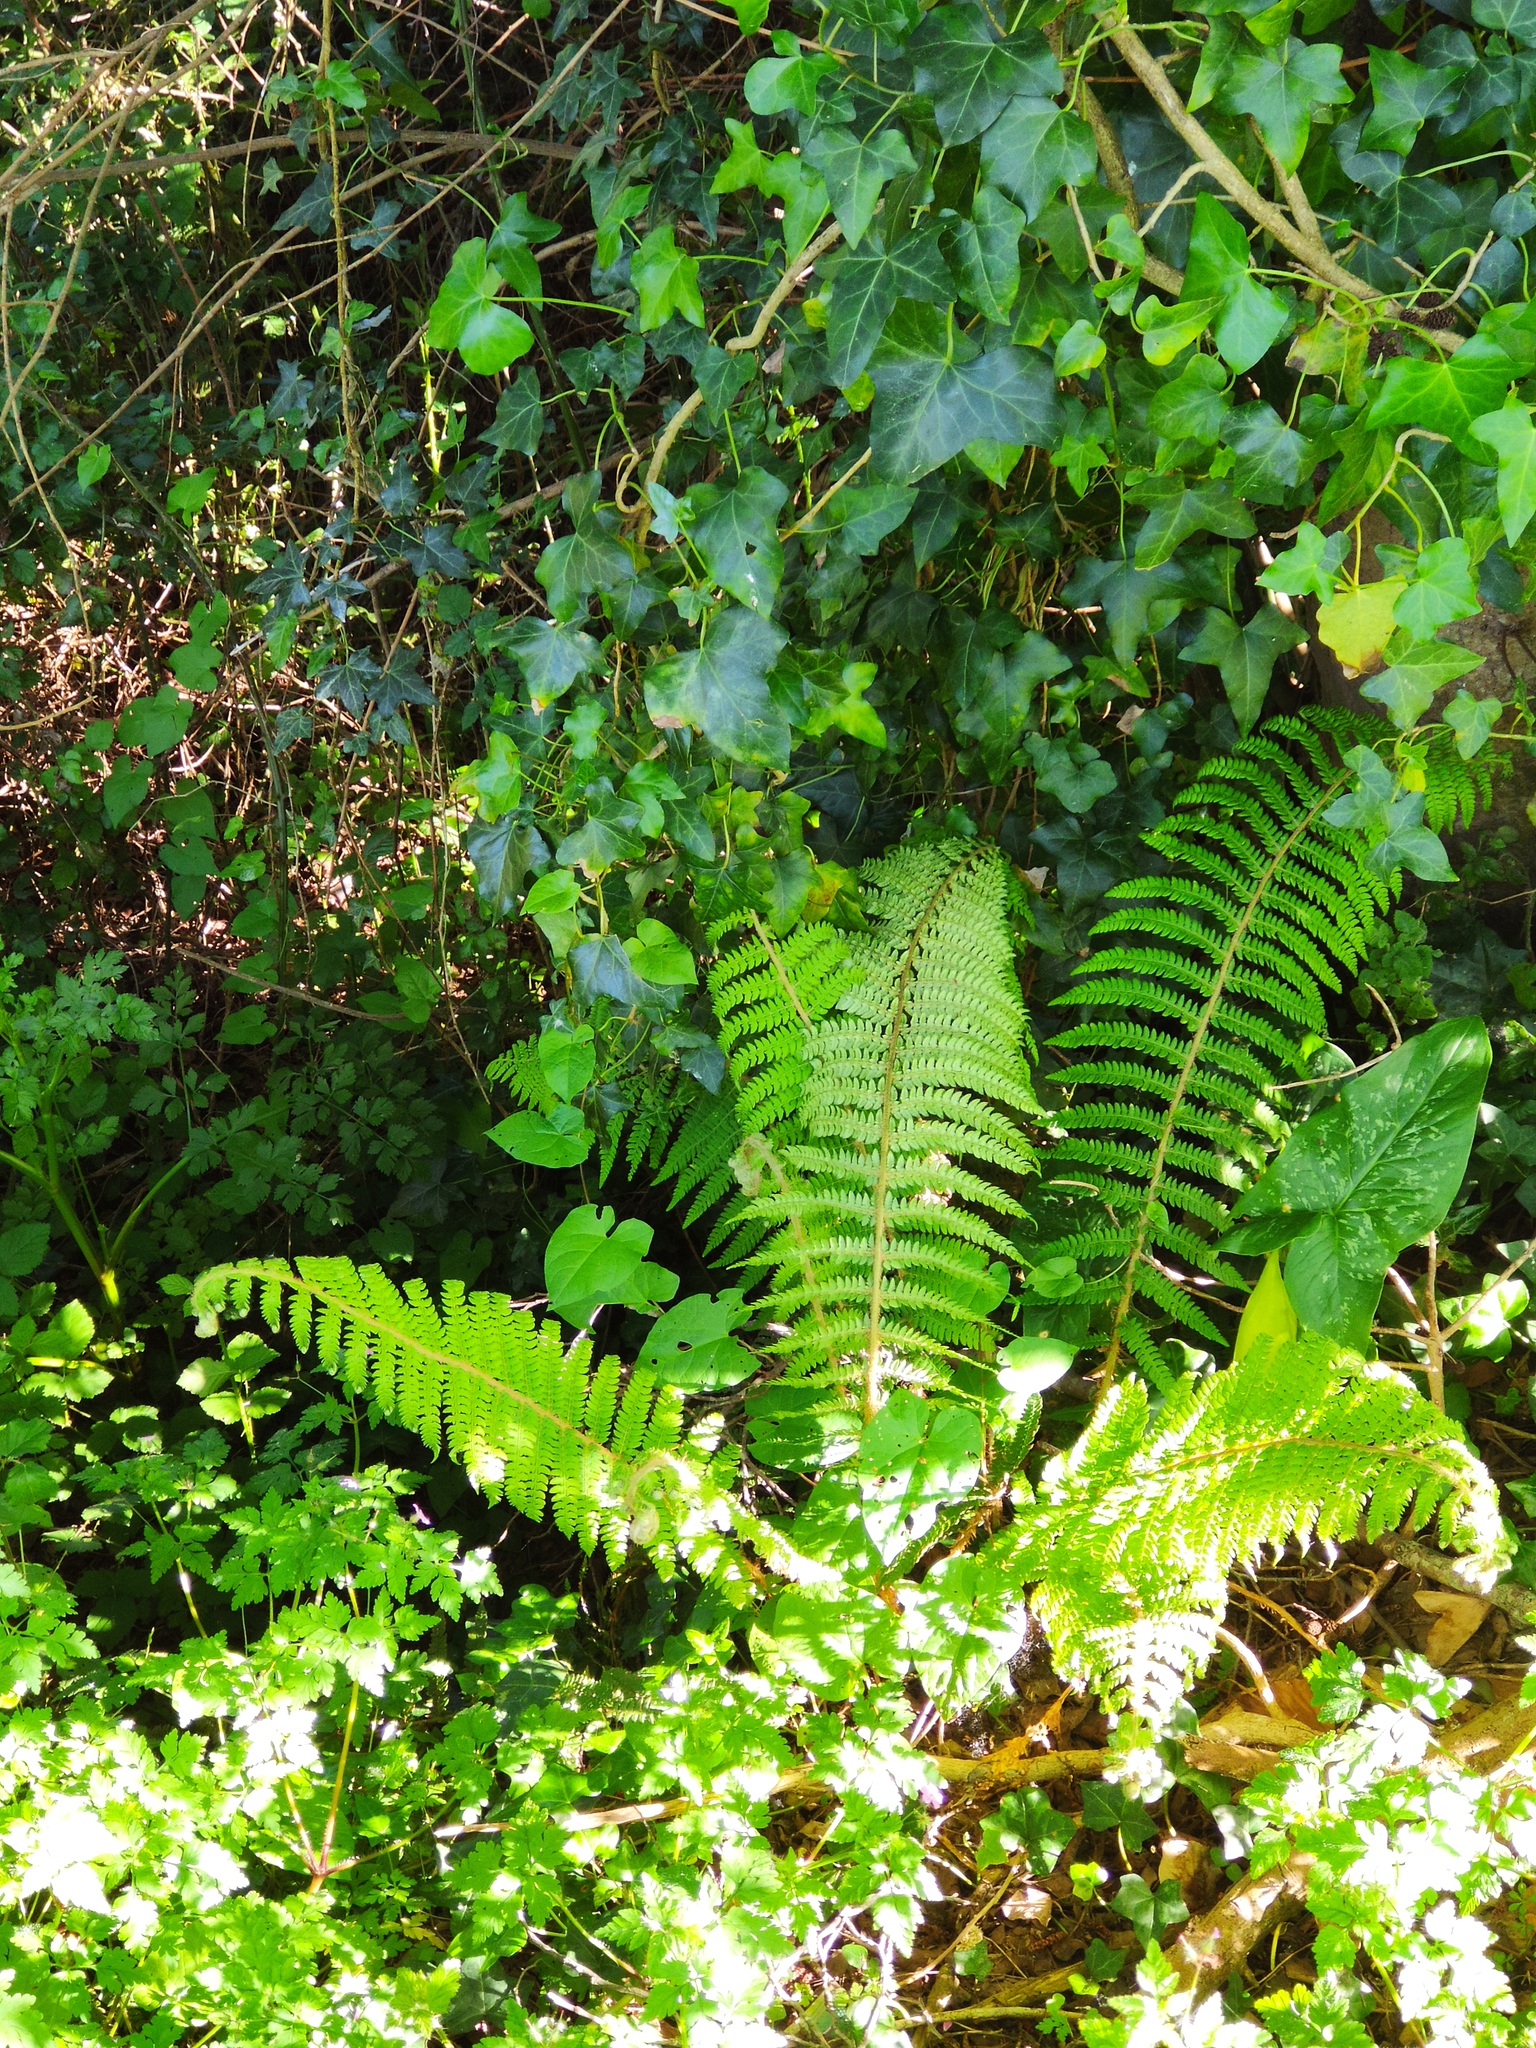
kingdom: Plantae
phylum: Tracheophyta
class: Polypodiopsida
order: Polypodiales
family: Dryopteridaceae
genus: Polystichum
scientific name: Polystichum setiferum
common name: Soft shield-fern
